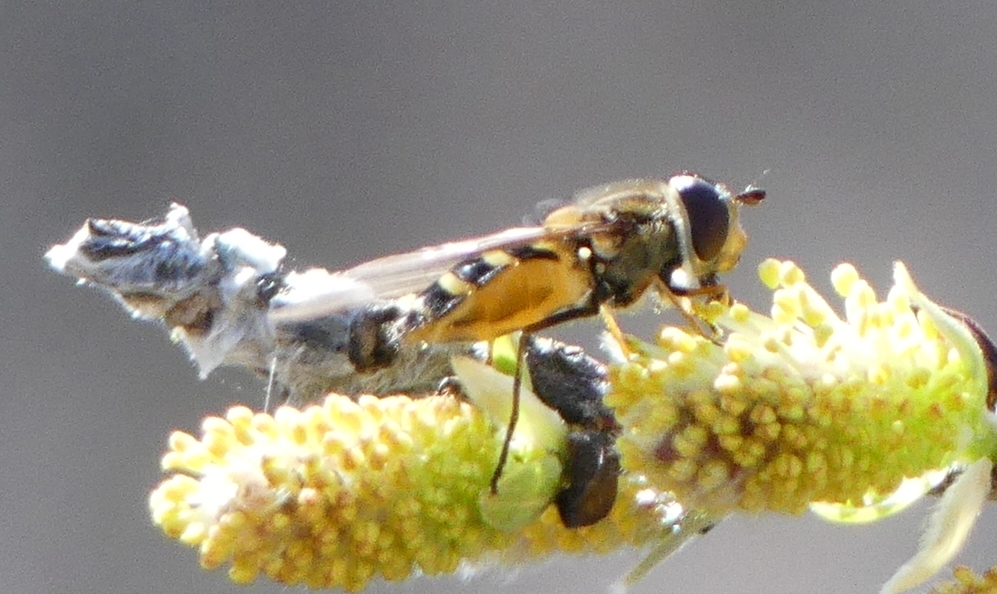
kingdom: Animalia
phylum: Arthropoda
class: Insecta
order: Diptera
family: Syrphidae
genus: Syrphus
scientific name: Syrphus
